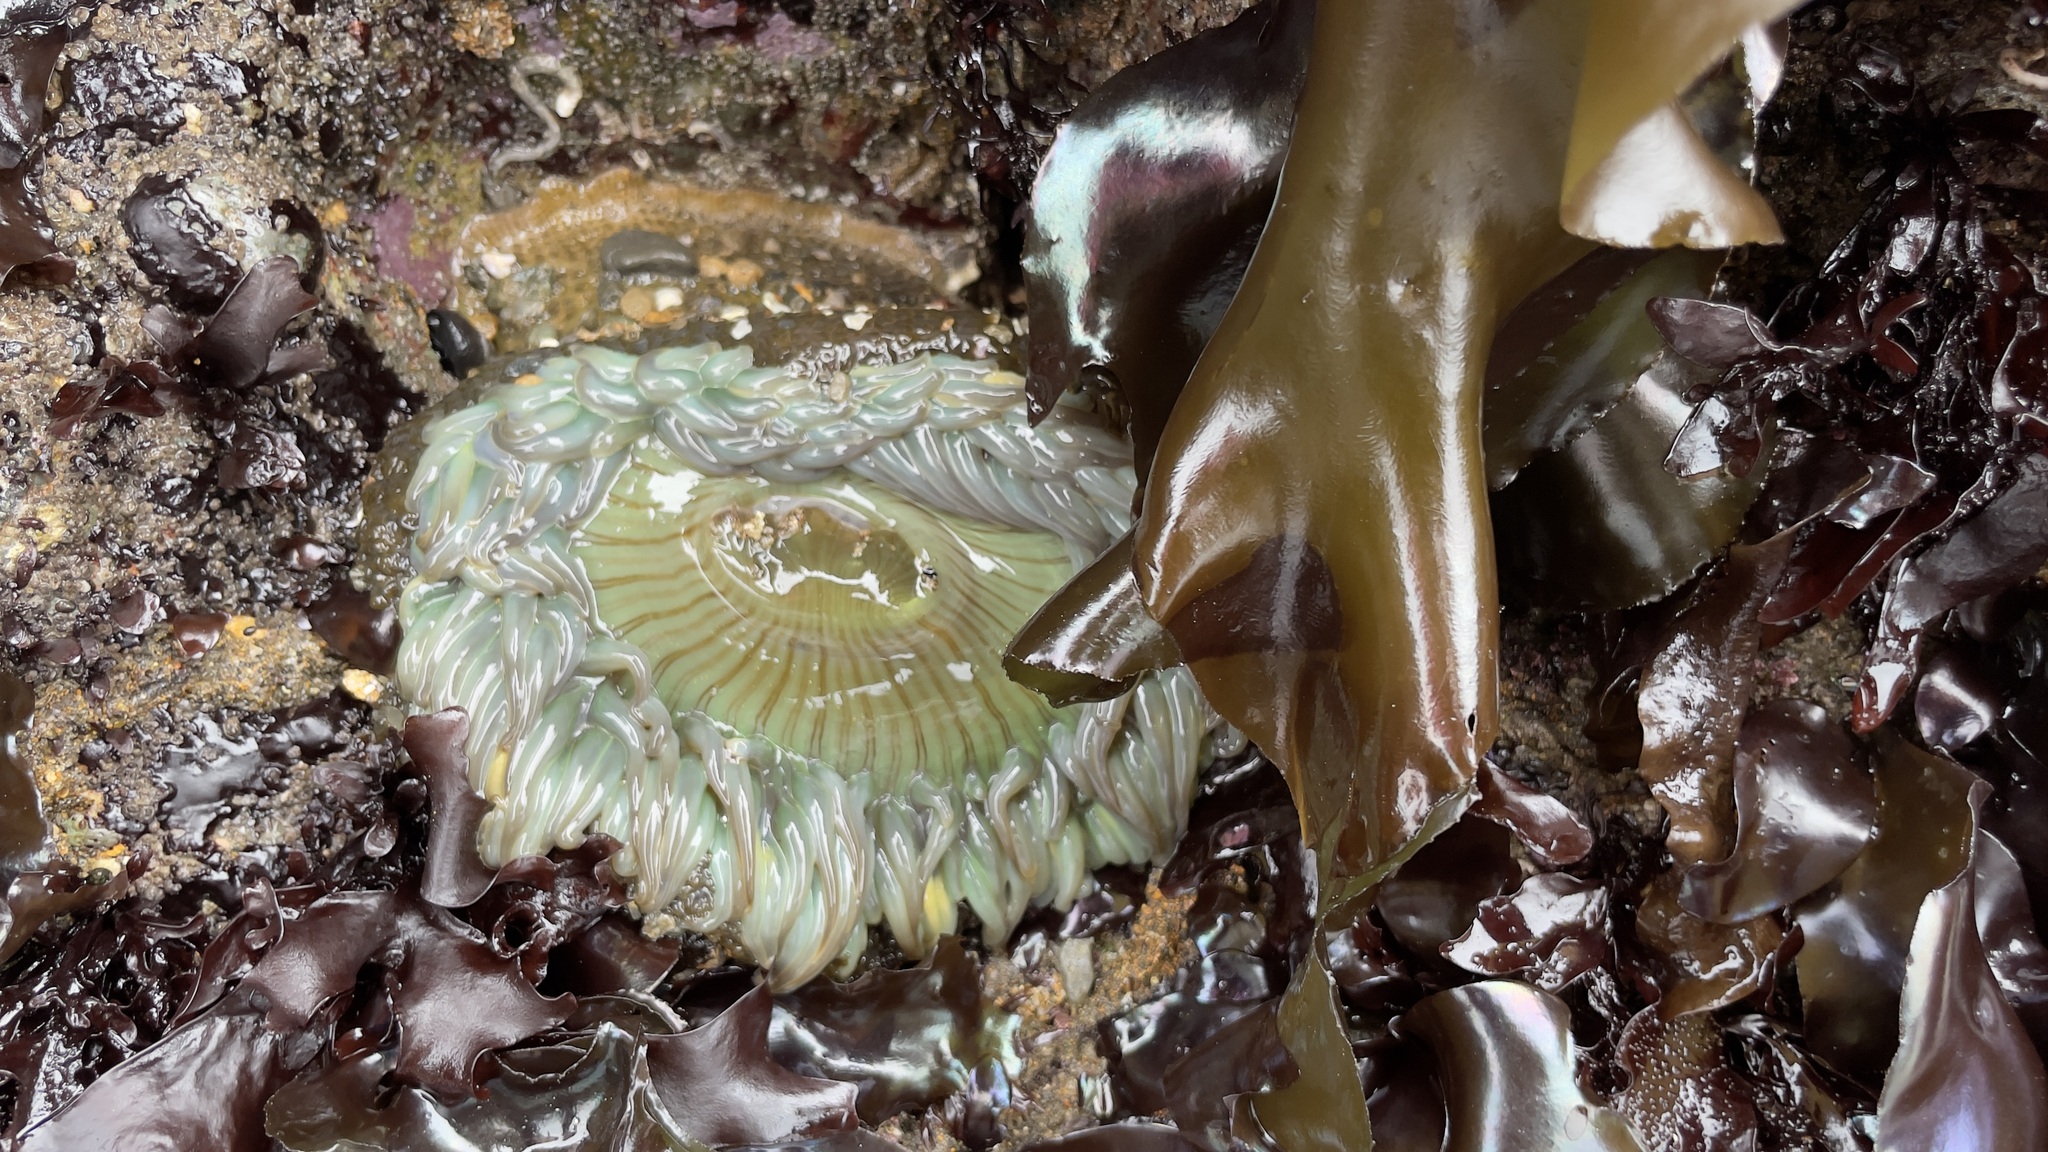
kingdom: Animalia
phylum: Cnidaria
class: Anthozoa
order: Actiniaria
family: Actiniidae
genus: Anthopleura
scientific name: Anthopleura sola
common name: Sun anemone
